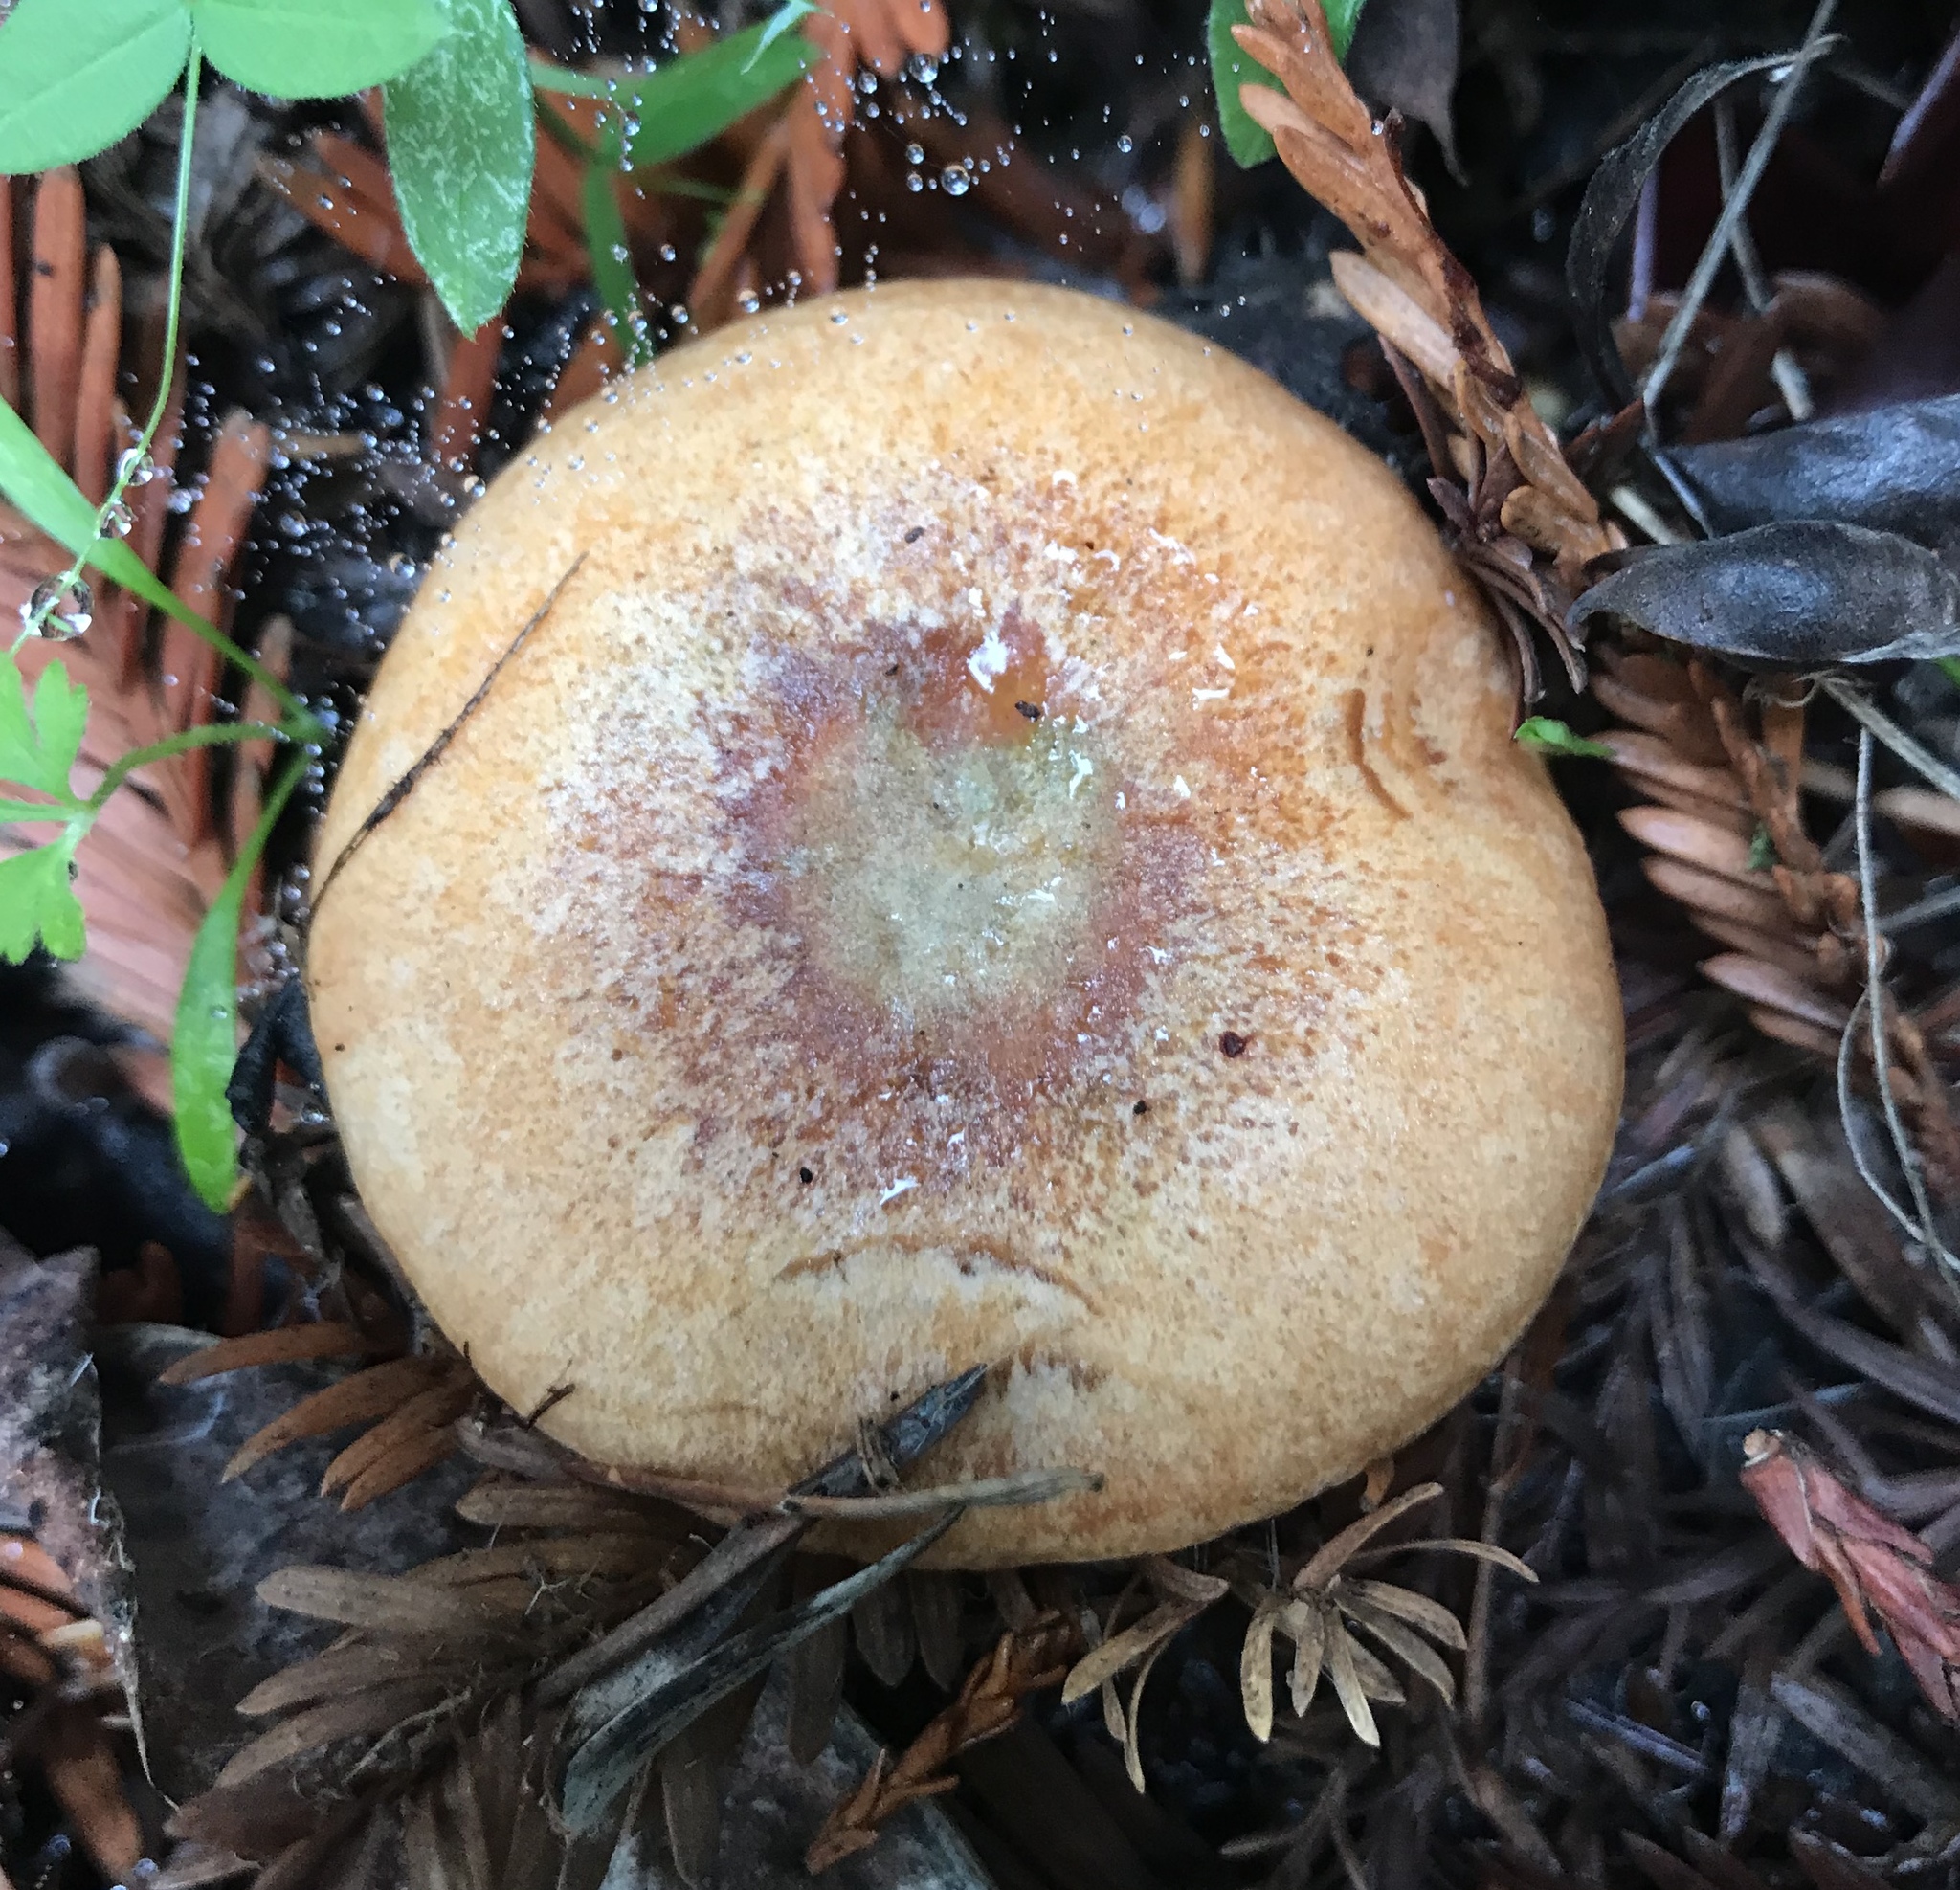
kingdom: Fungi
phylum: Basidiomycota
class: Agaricomycetes
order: Russulales
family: Russulaceae
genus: Lactarius
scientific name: Lactarius rubrilacteus
